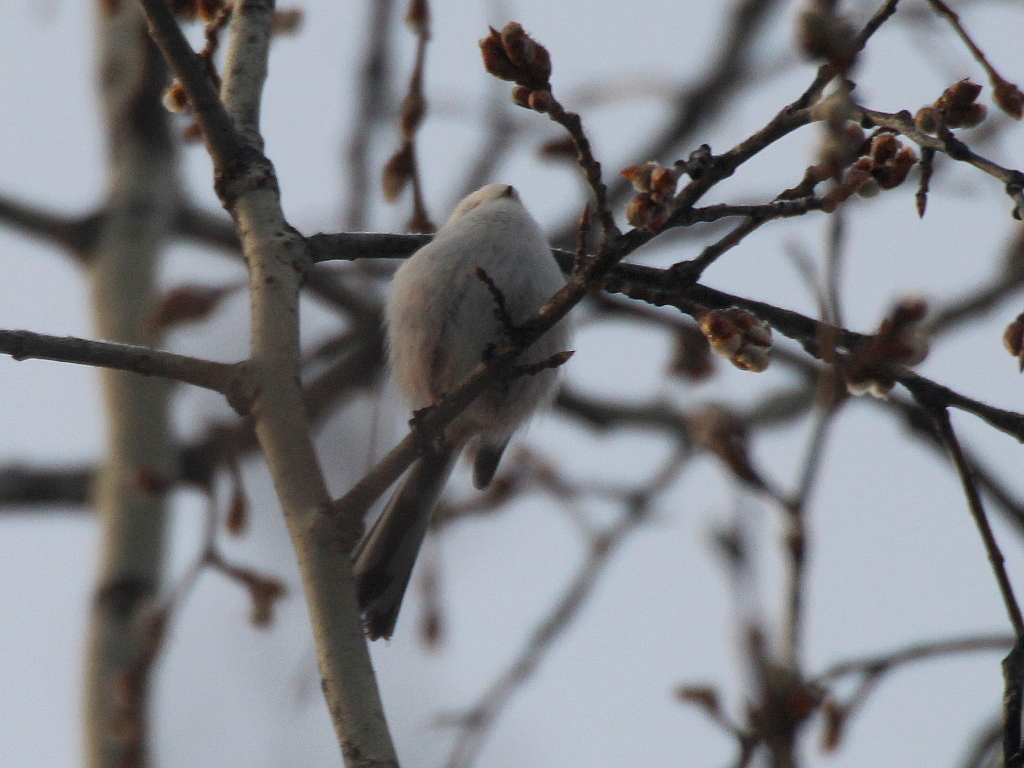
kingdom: Animalia
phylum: Chordata
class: Aves
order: Passeriformes
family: Aegithalidae
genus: Aegithalos
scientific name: Aegithalos caudatus
